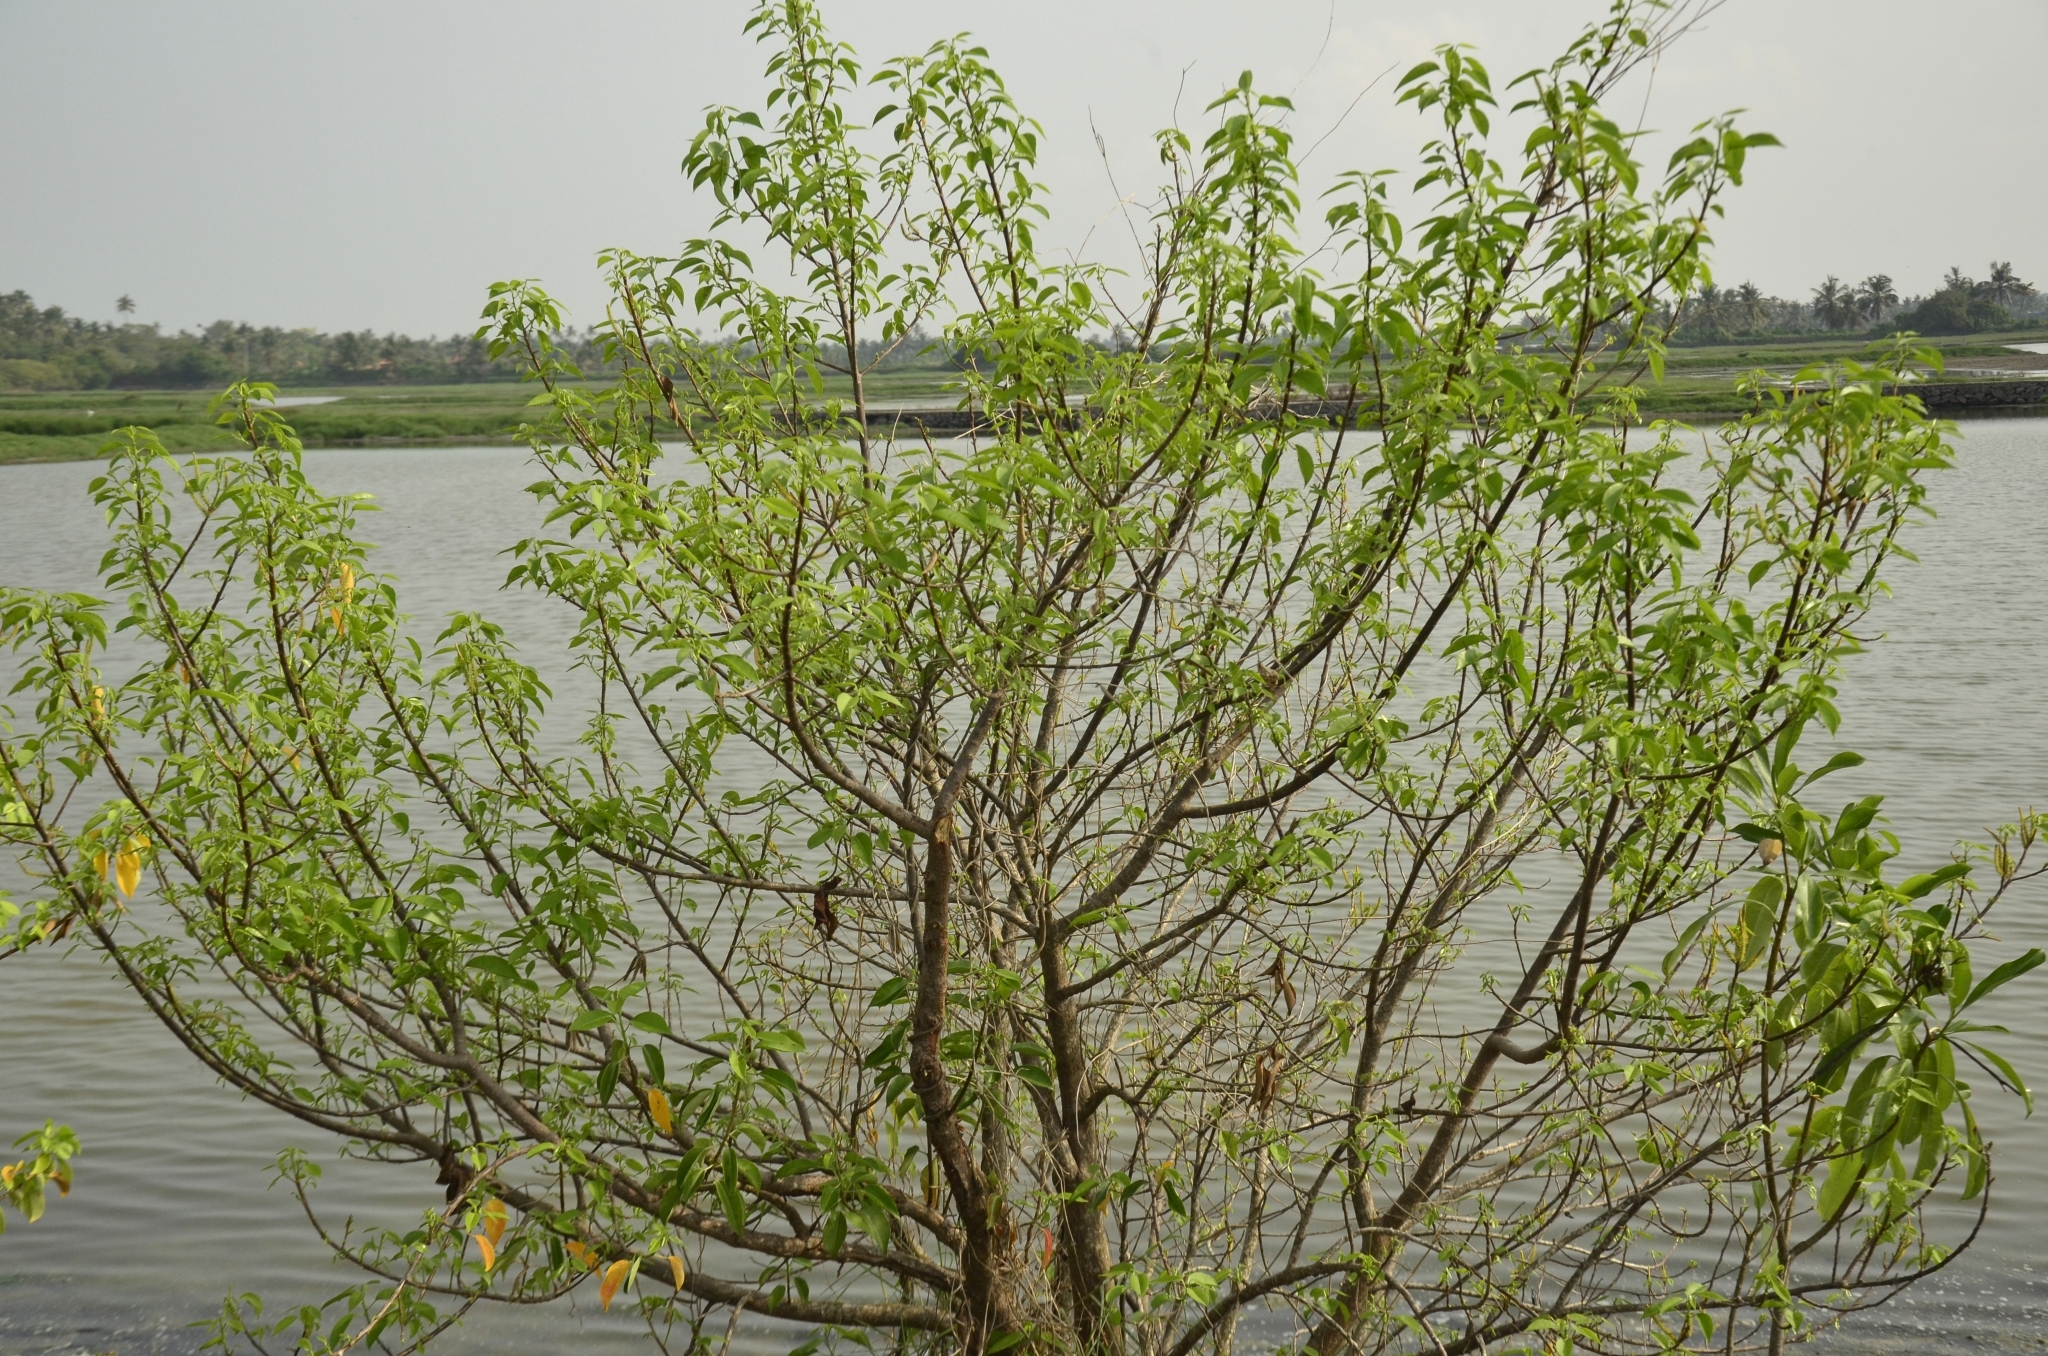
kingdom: Plantae
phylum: Tracheophyta
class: Magnoliopsida
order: Malpighiales
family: Euphorbiaceae
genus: Excoecaria
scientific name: Excoecaria agallocha
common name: River poisontree
